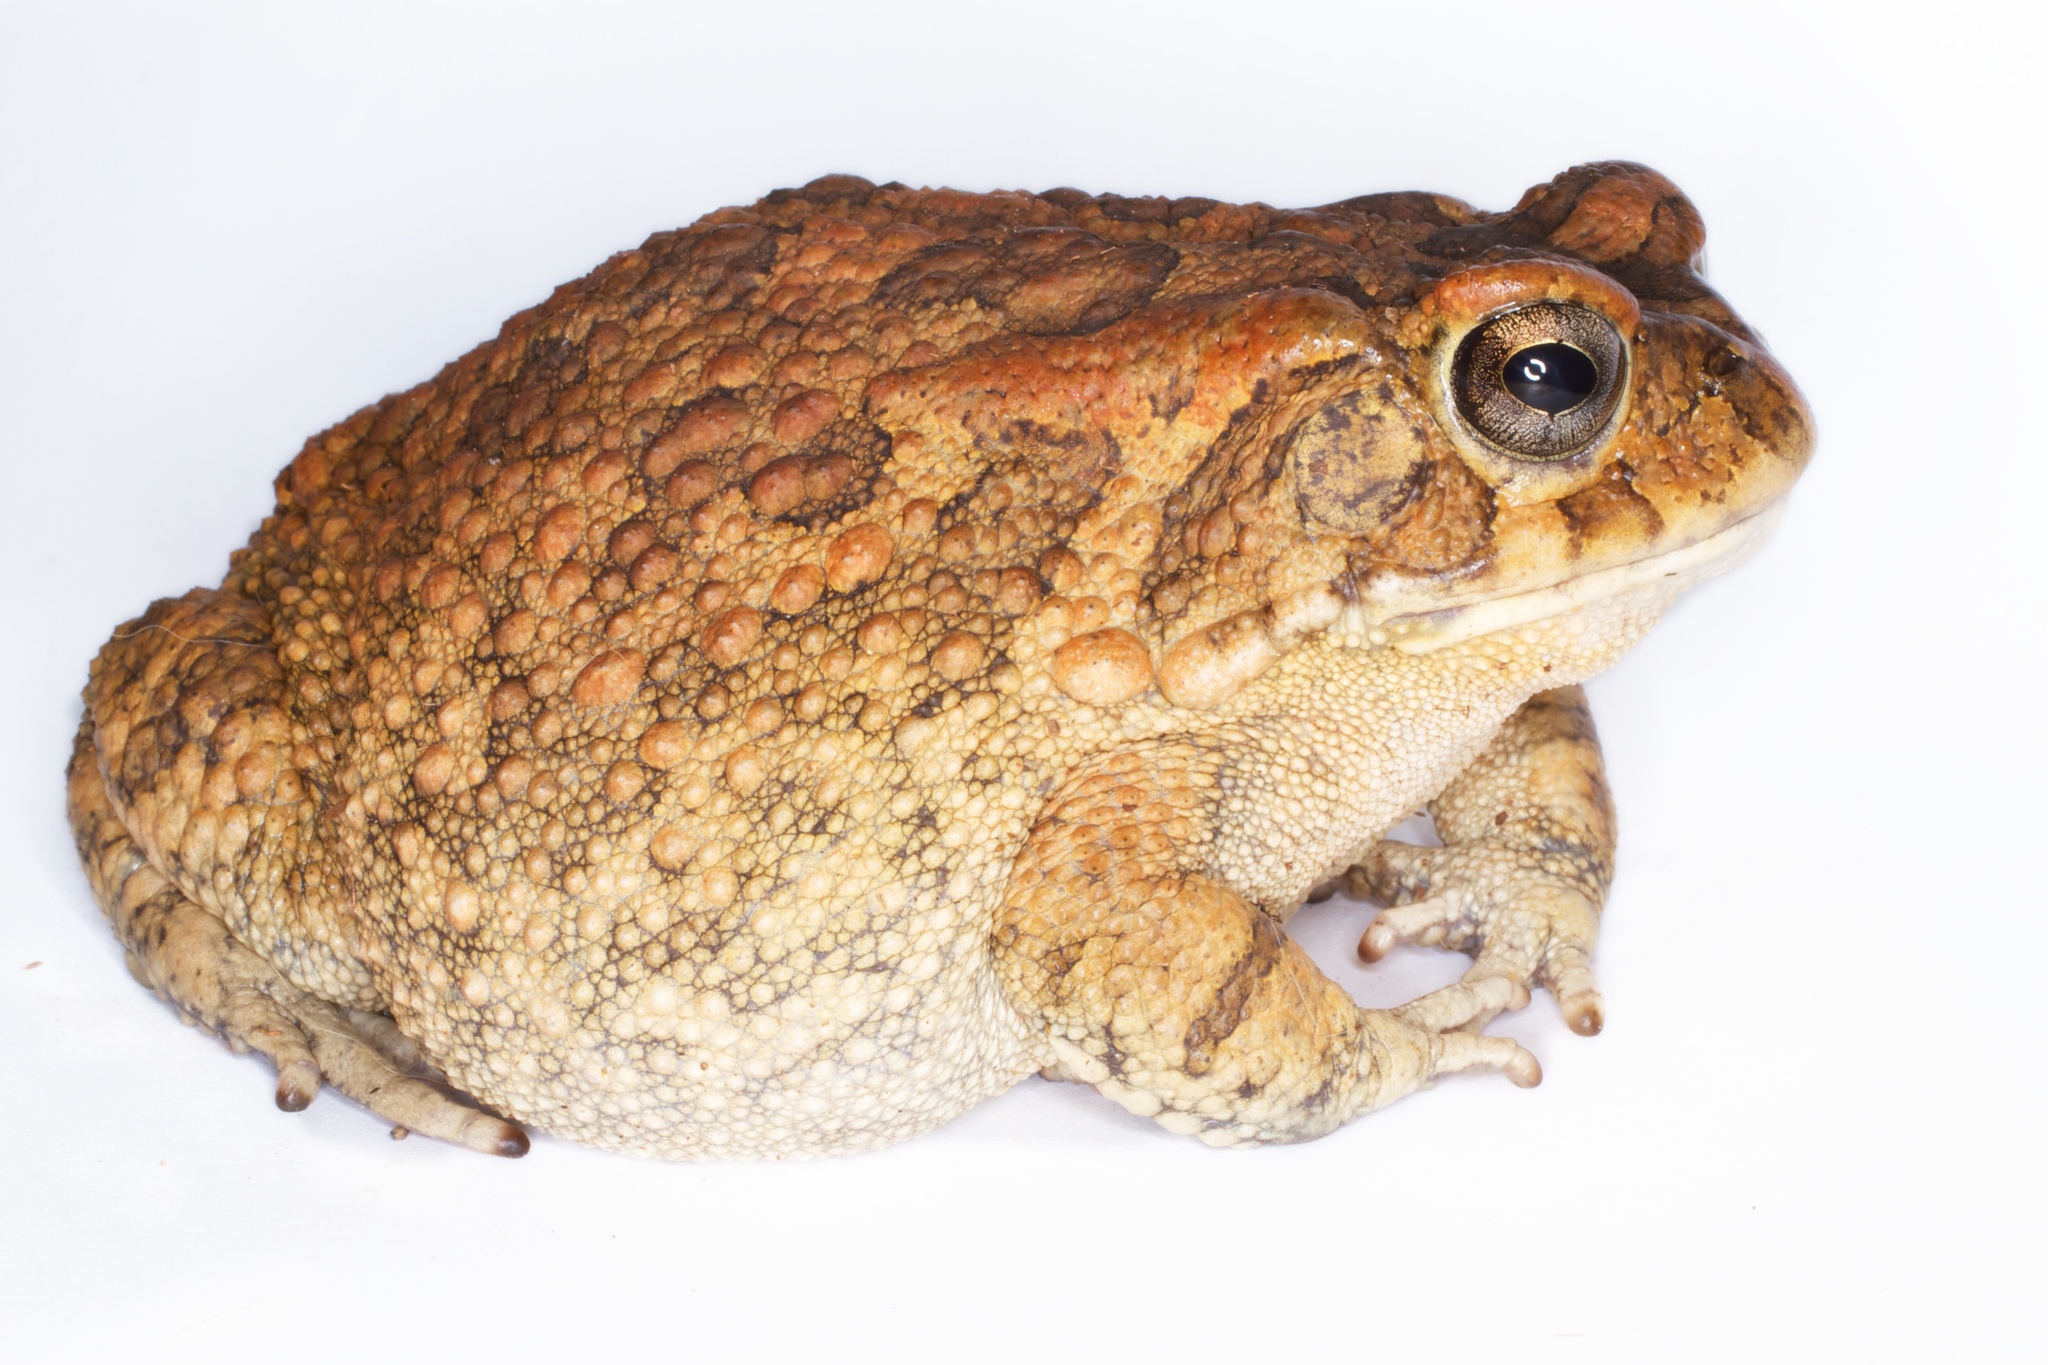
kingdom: Animalia
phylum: Chordata
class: Amphibia
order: Anura
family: Bufonidae
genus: Sclerophrys
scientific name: Sclerophrys gutturalis
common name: African common toad
